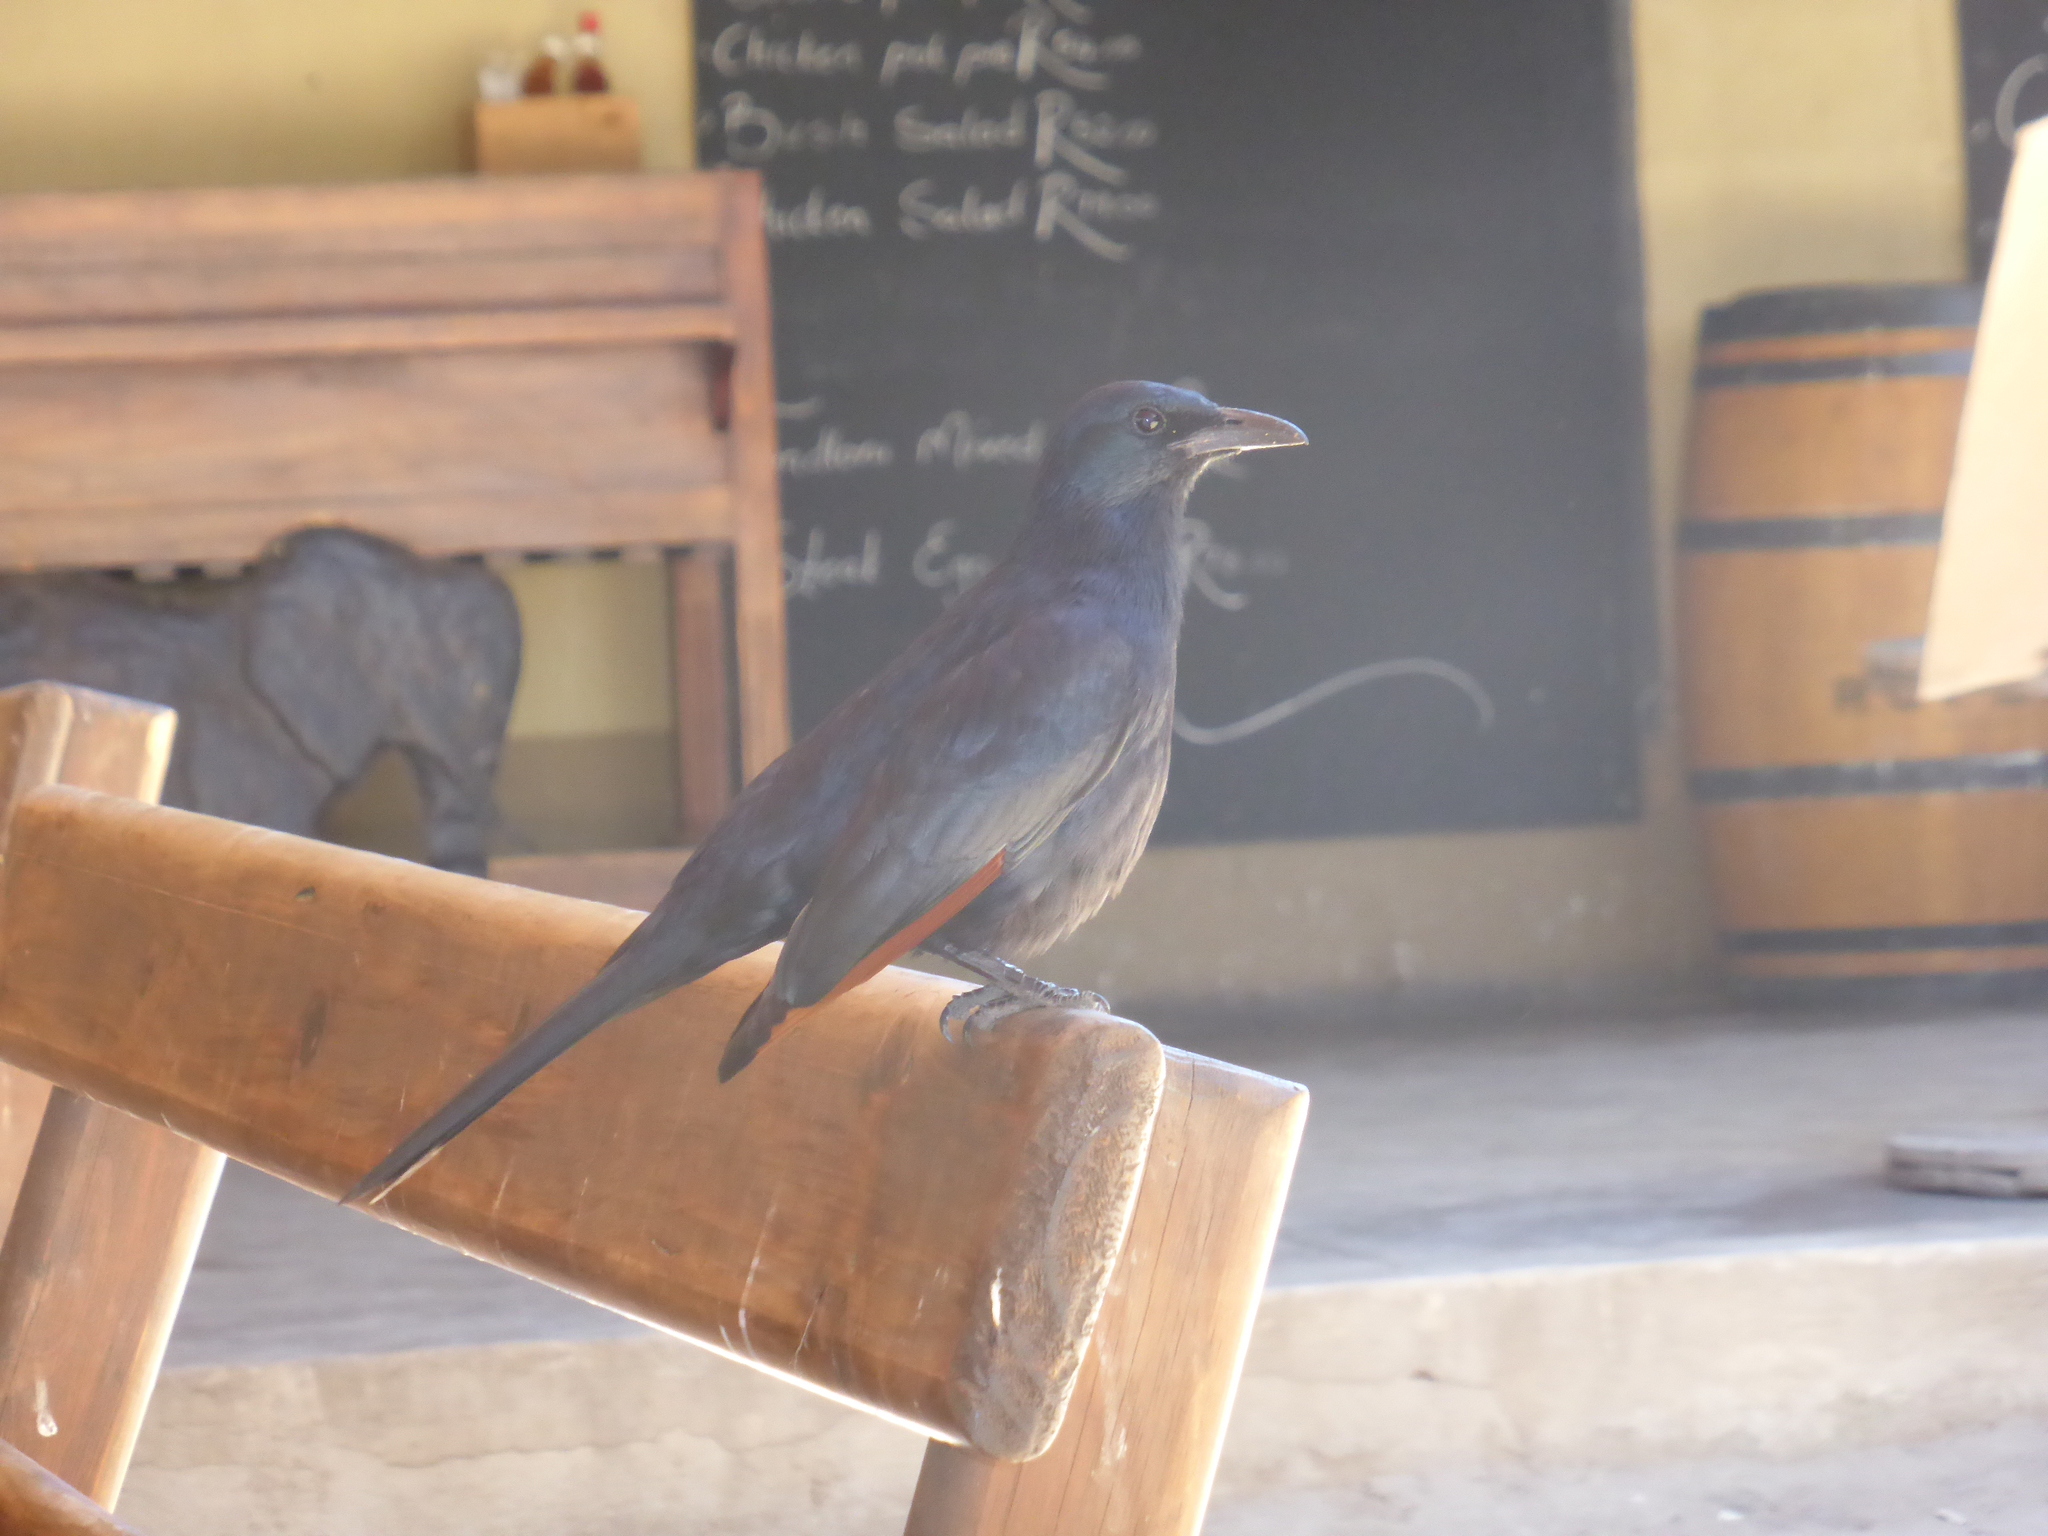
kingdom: Animalia
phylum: Chordata
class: Aves
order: Passeriformes
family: Sturnidae
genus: Onychognathus
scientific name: Onychognathus morio
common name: Red-winged starling
